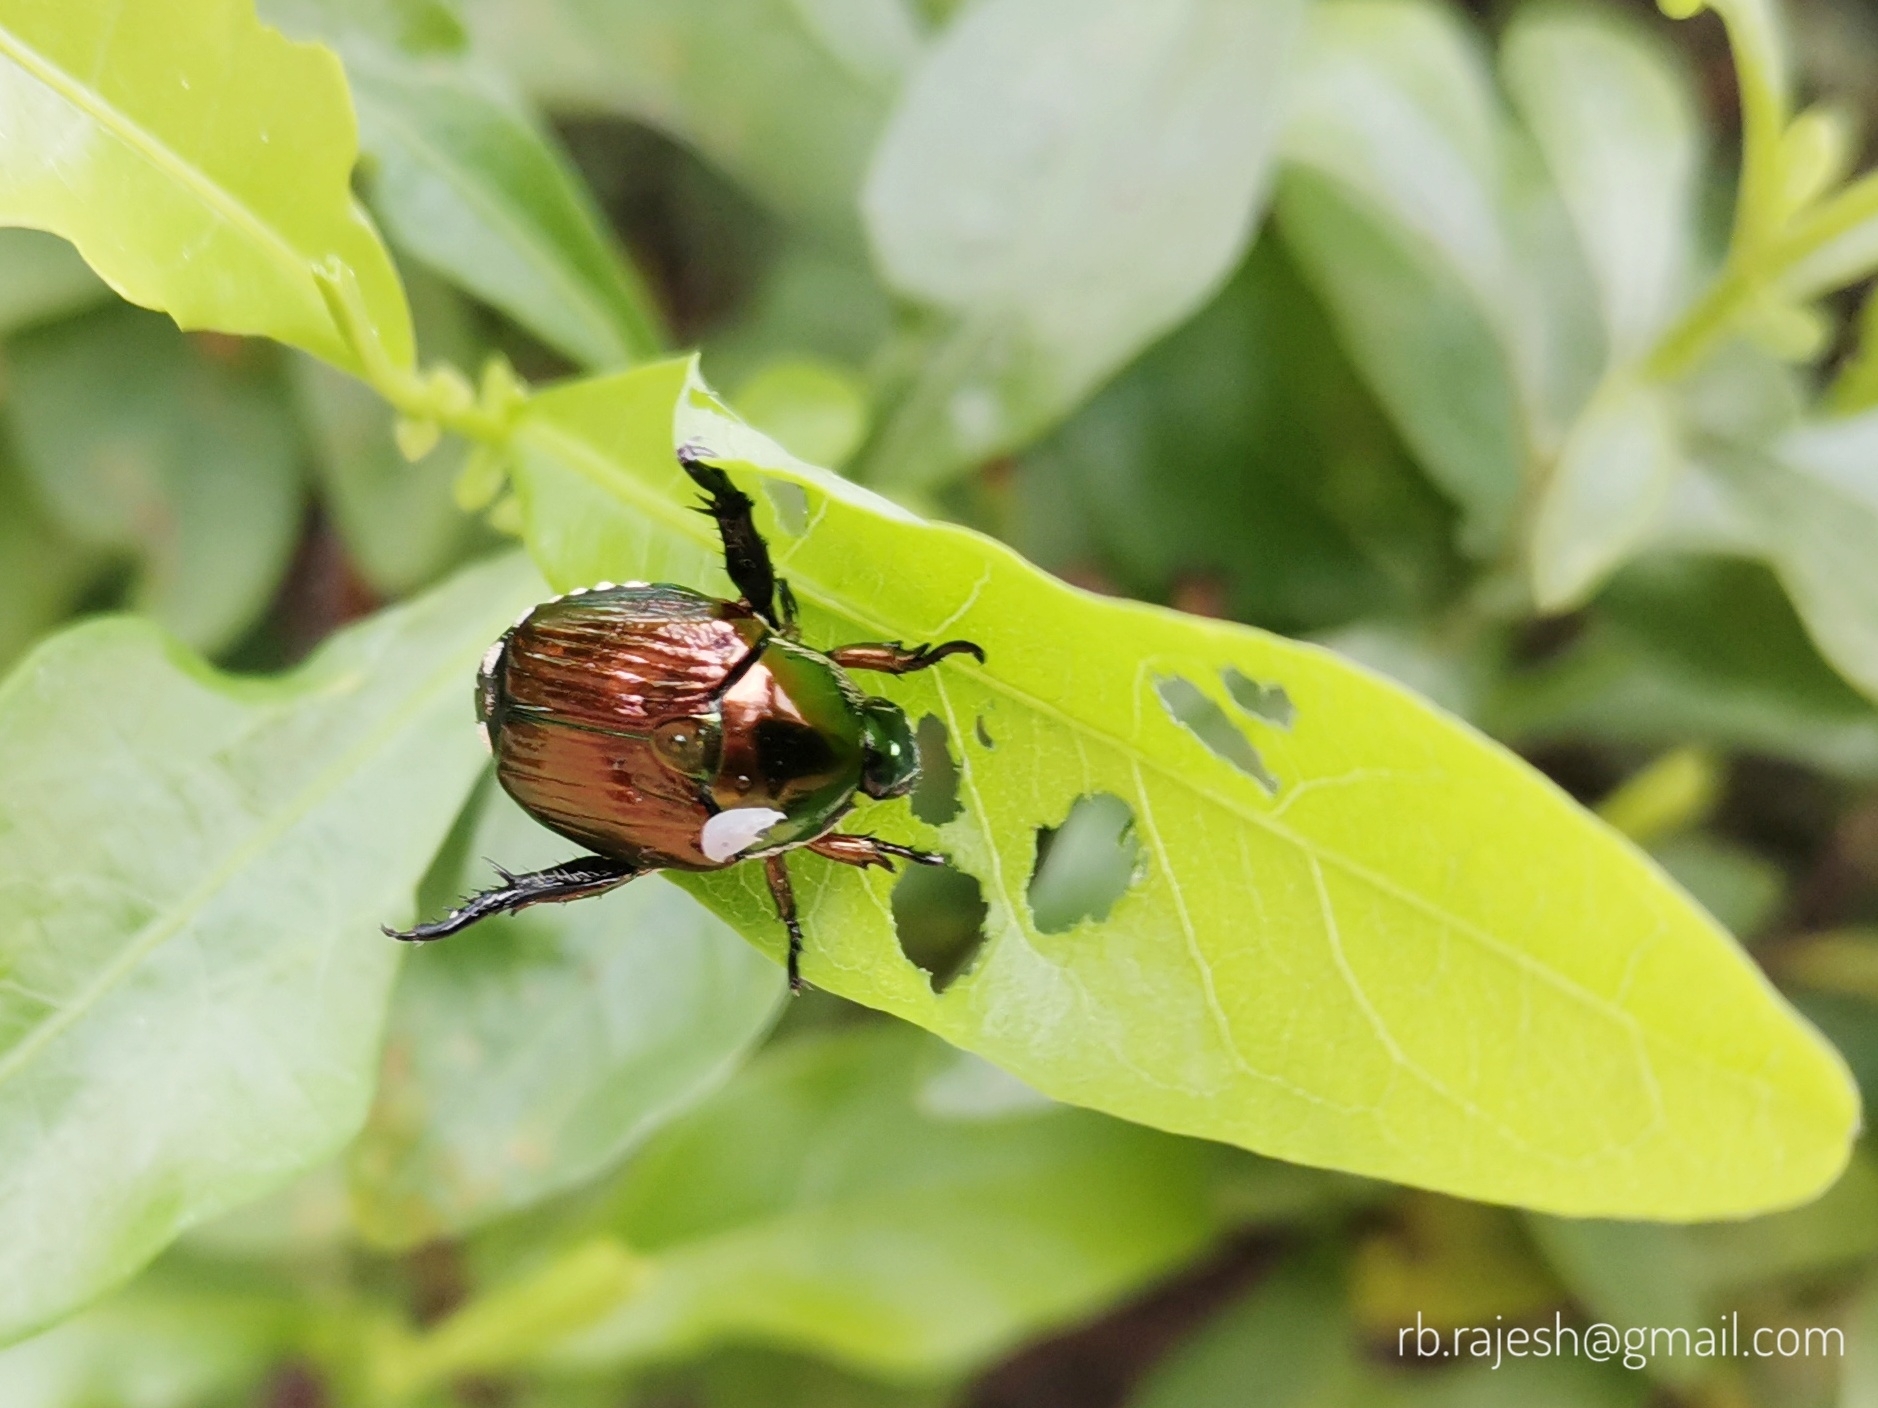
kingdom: Animalia
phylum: Arthropoda
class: Insecta
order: Coleoptera
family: Scarabaeidae
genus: Popillia
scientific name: Popillia complanata
